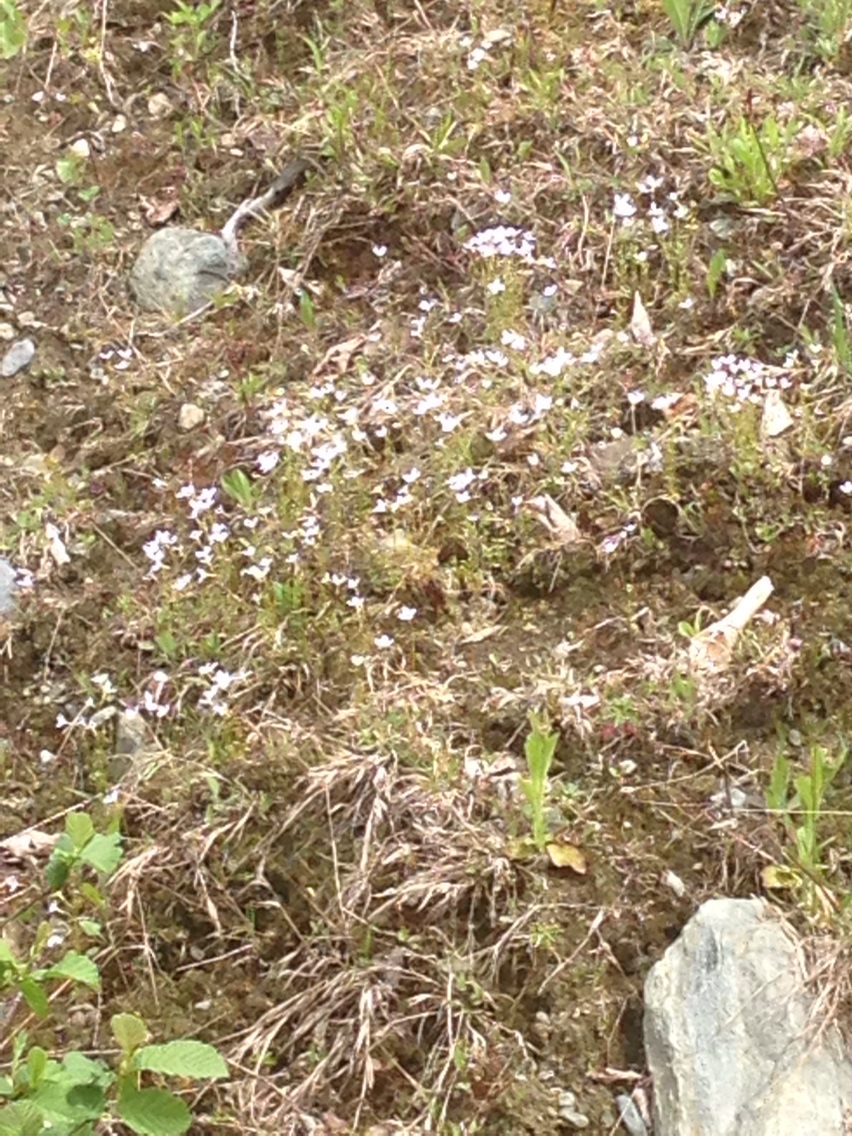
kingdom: Plantae
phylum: Tracheophyta
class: Magnoliopsida
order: Gentianales
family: Rubiaceae
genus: Houstonia
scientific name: Houstonia caerulea
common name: Bluets
